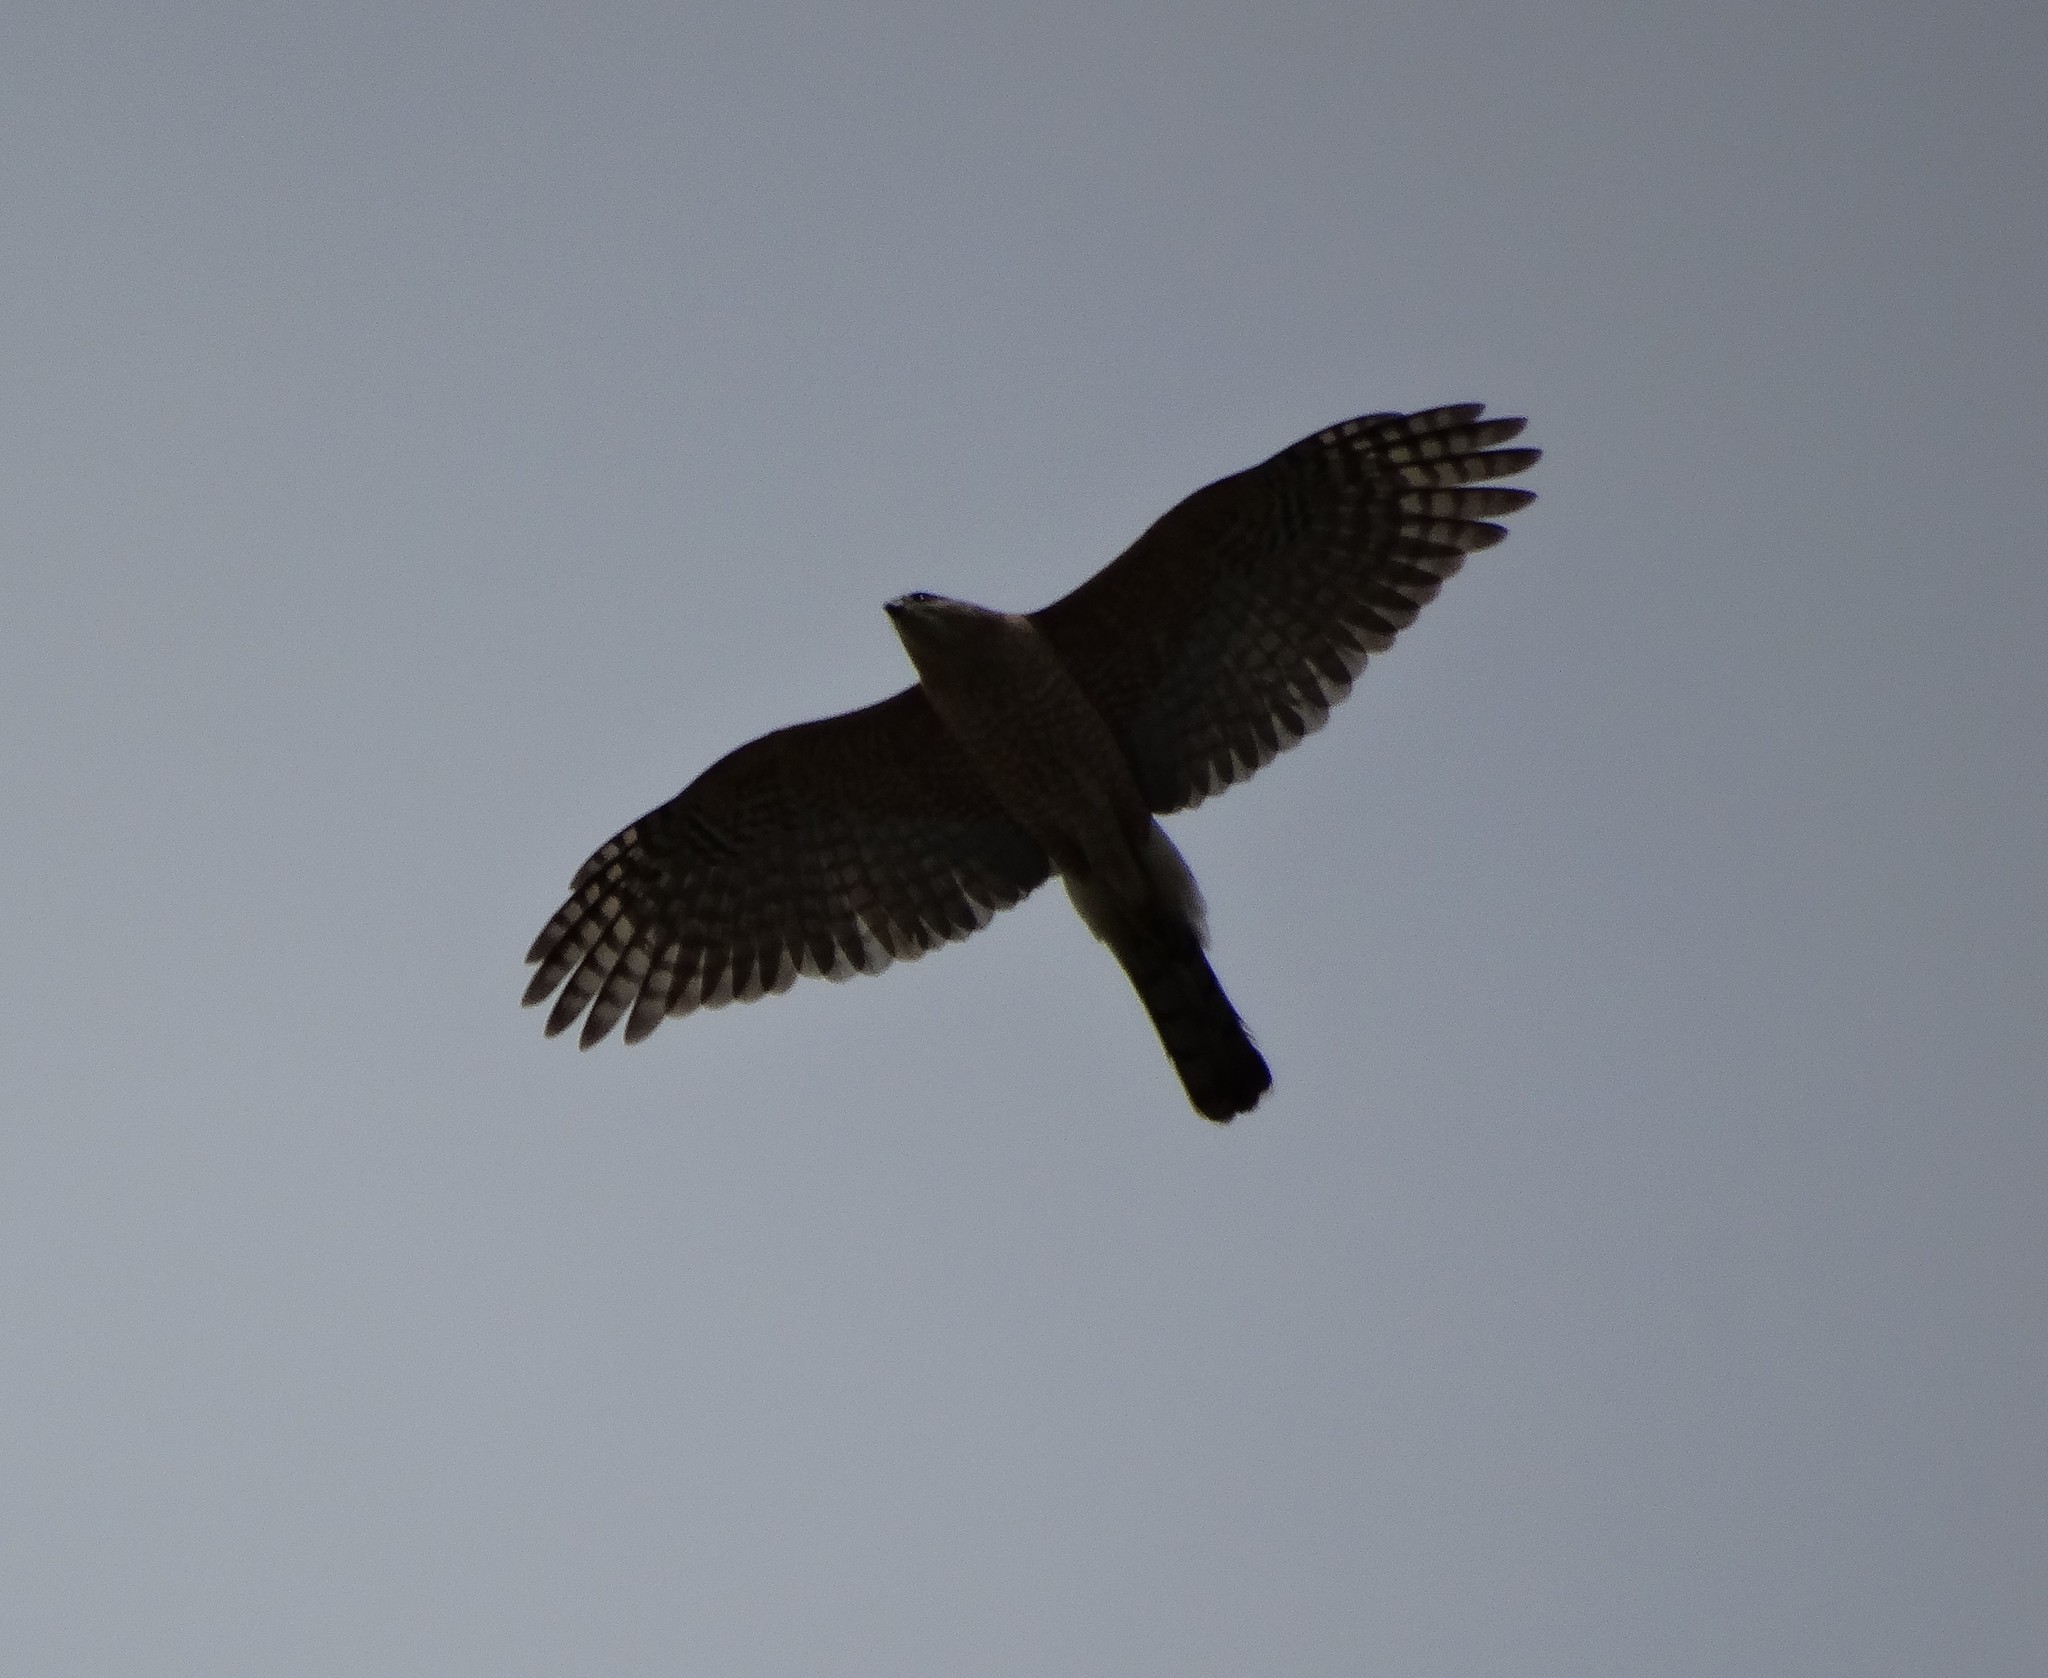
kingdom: Animalia
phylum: Chordata
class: Aves
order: Accipitriformes
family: Accipitridae
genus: Accipiter
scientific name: Accipiter cooperii
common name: Cooper's hawk
